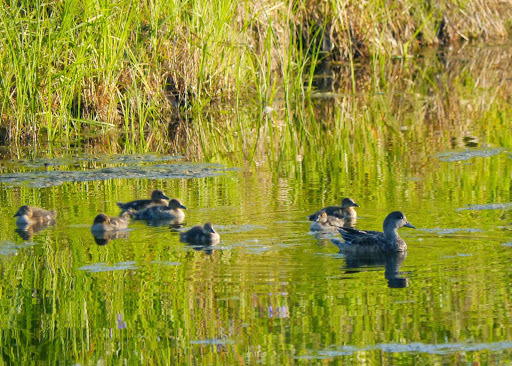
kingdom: Animalia
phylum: Chordata
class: Aves
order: Anseriformes
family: Anatidae
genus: Mareca
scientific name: Mareca americana
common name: American wigeon
